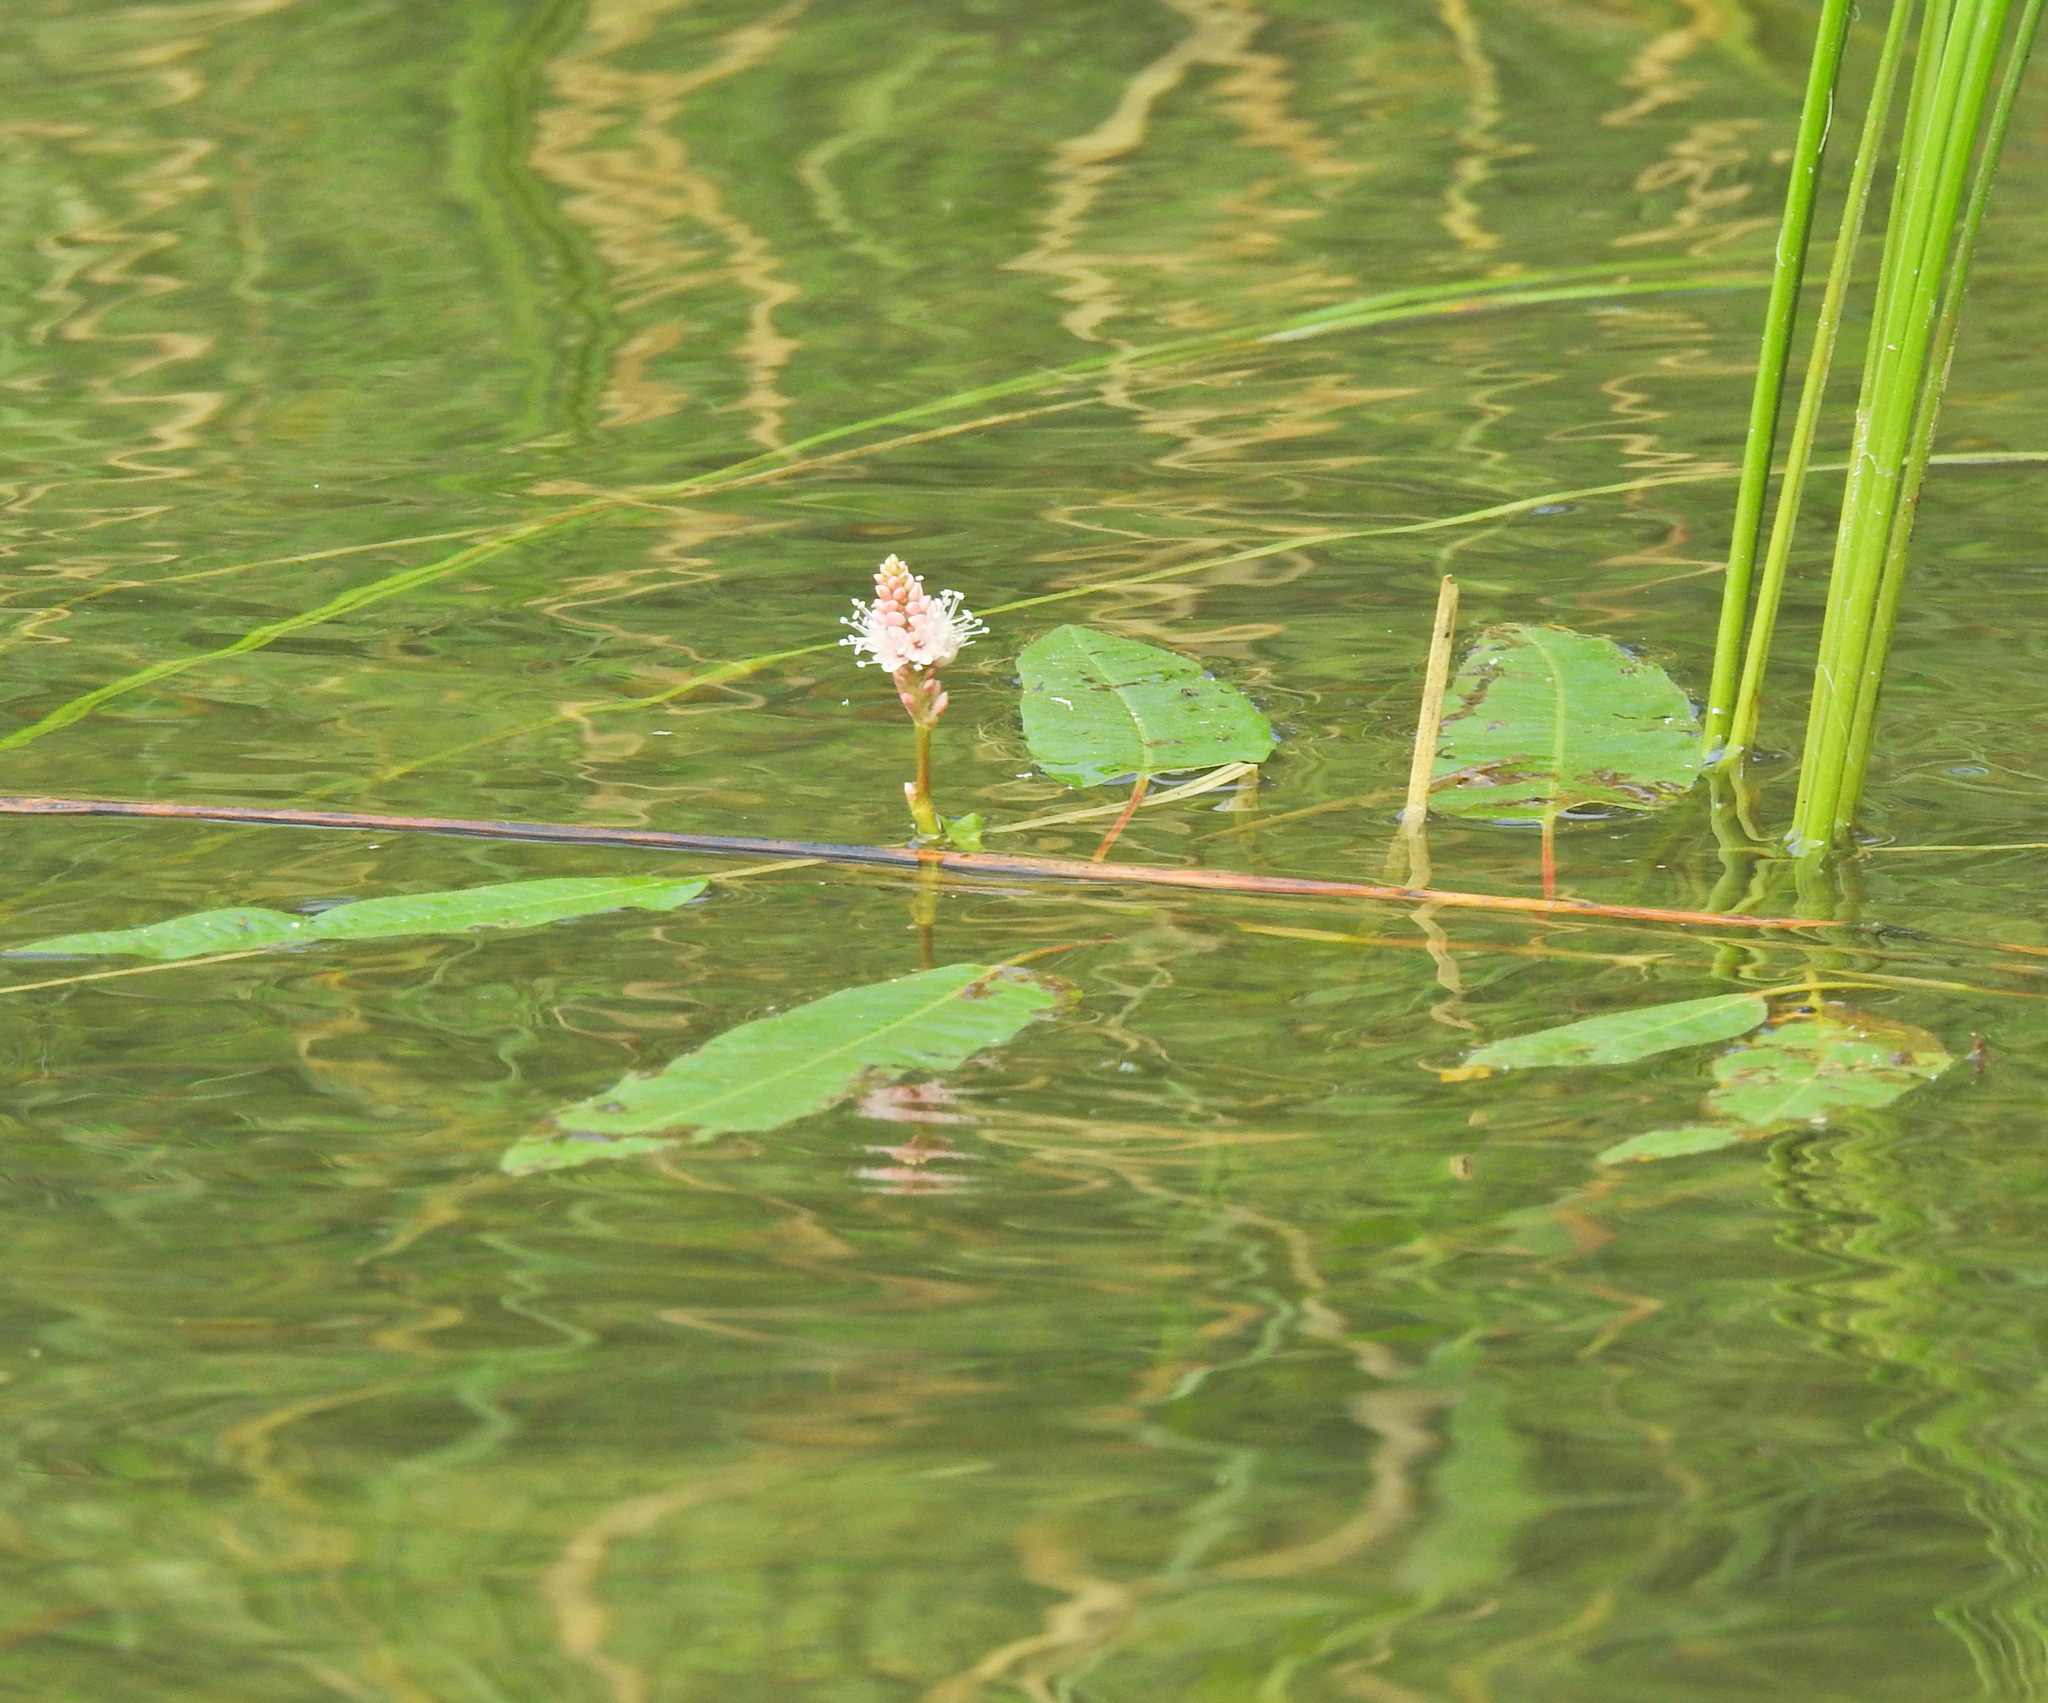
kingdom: Plantae
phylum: Tracheophyta
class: Magnoliopsida
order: Caryophyllales
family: Polygonaceae
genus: Persicaria
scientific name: Persicaria amphibia
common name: Amphibious bistort
